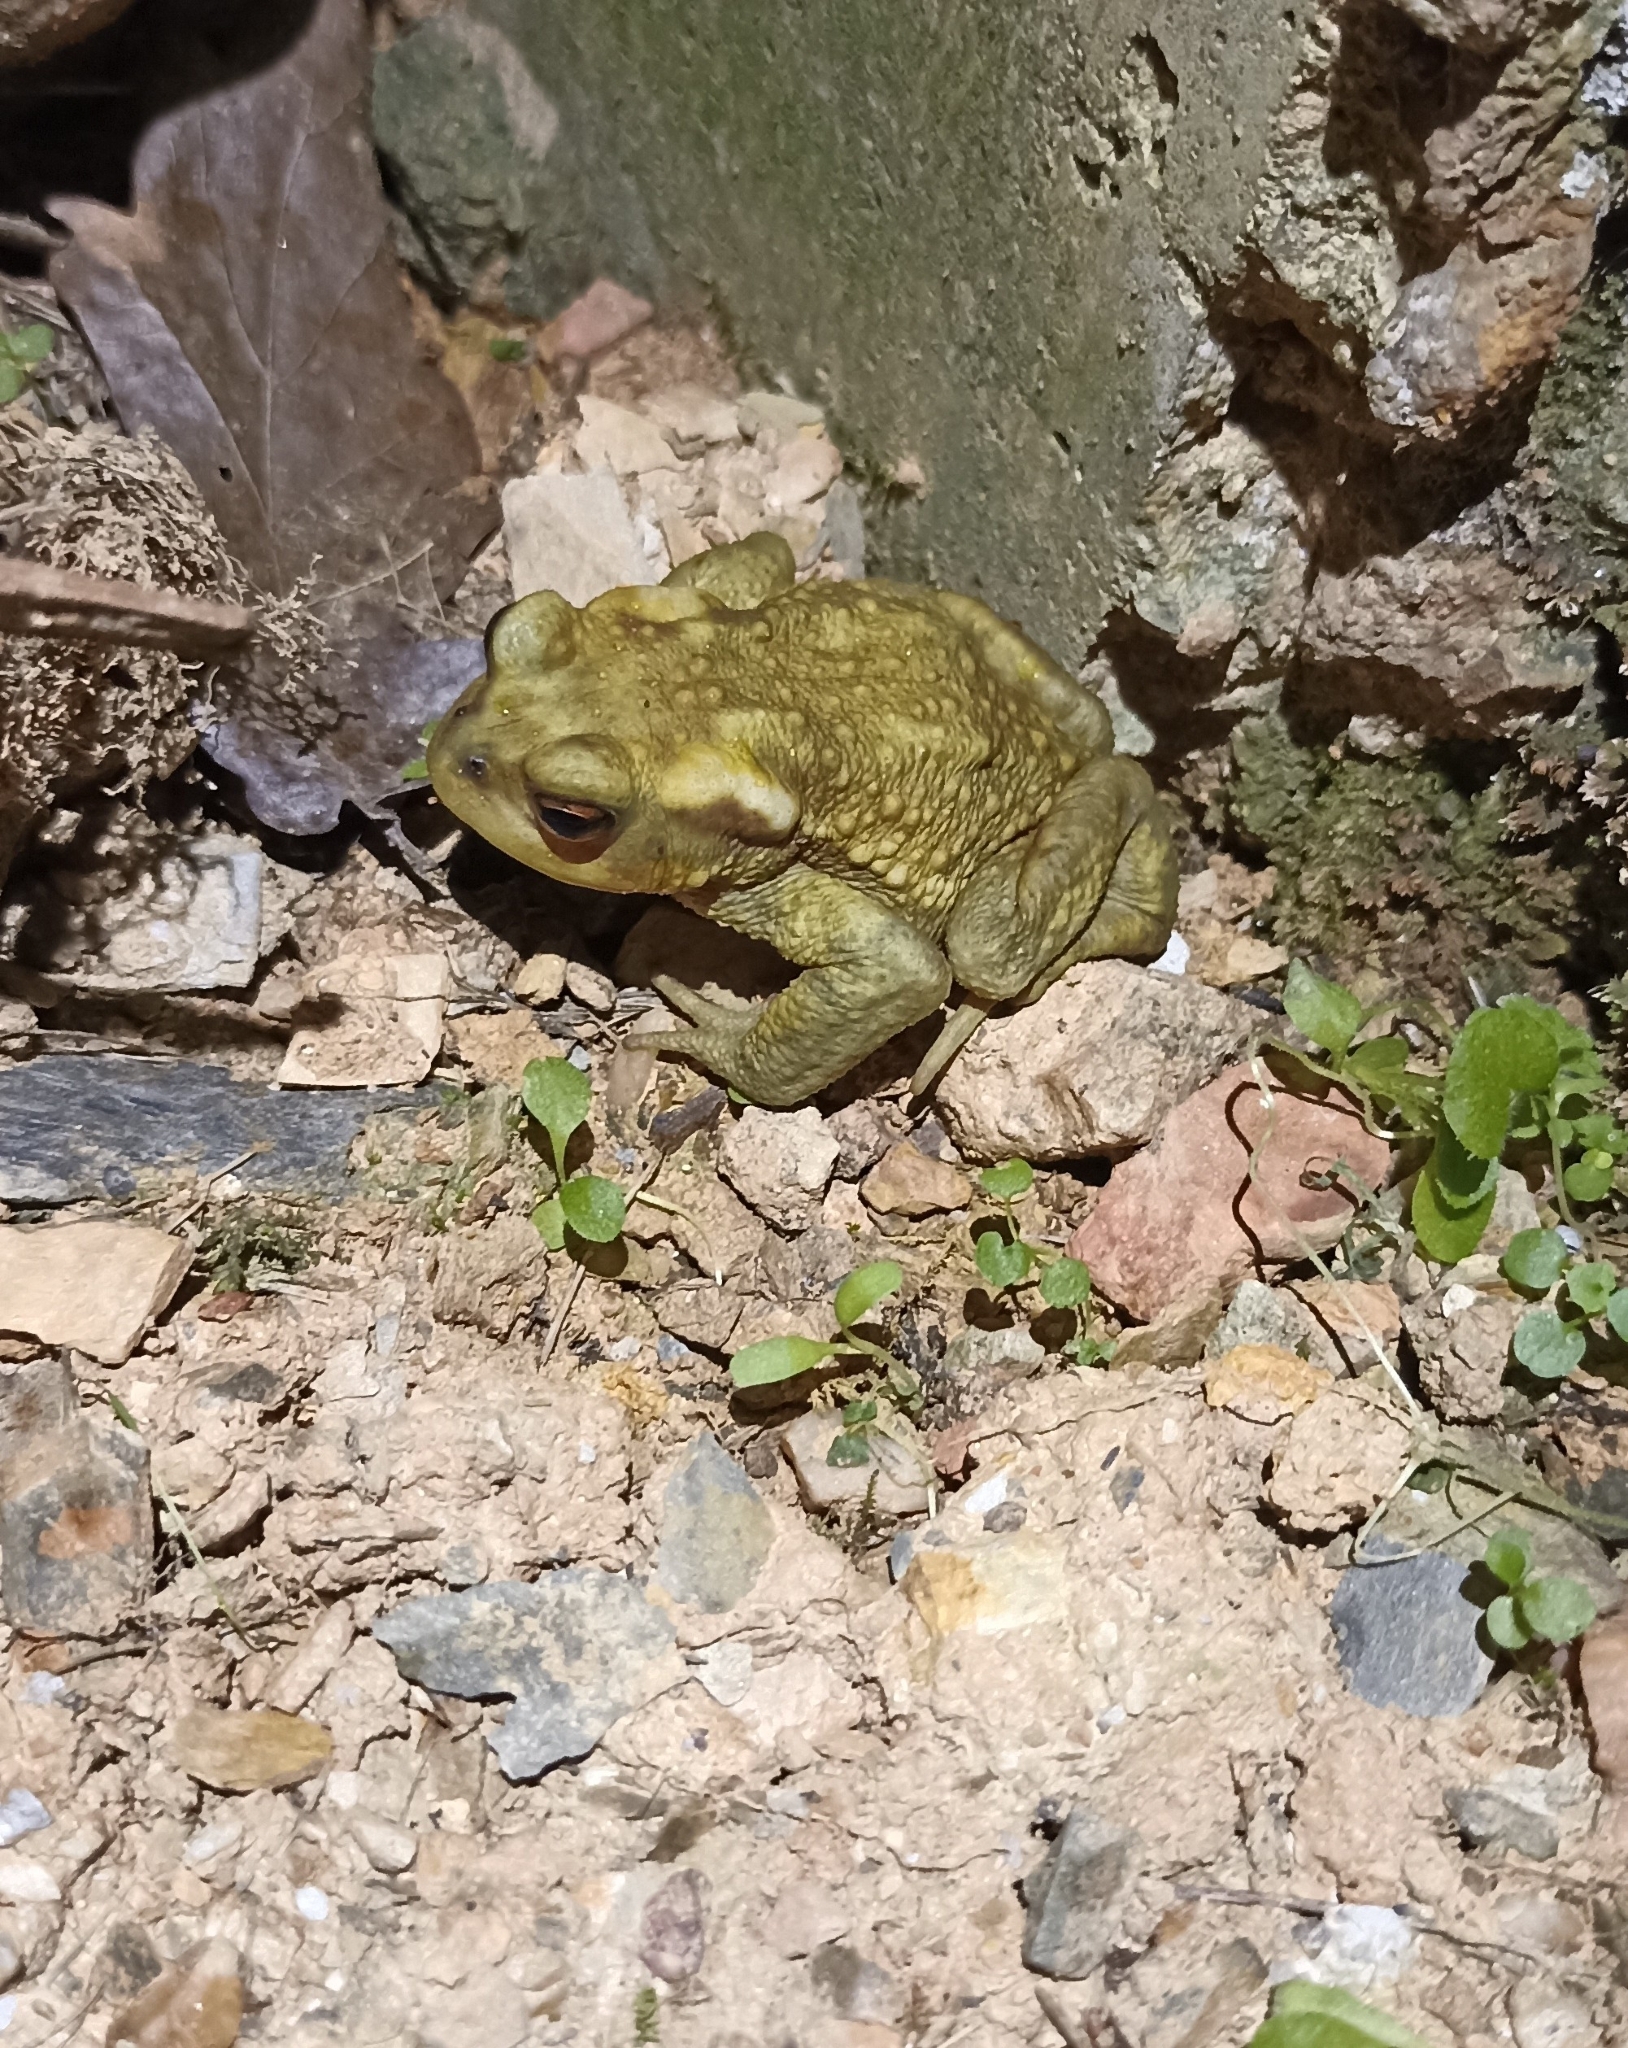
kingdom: Animalia
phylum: Chordata
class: Amphibia
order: Anura
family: Bufonidae
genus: Bufo
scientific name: Bufo spinosus
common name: Western common toad
